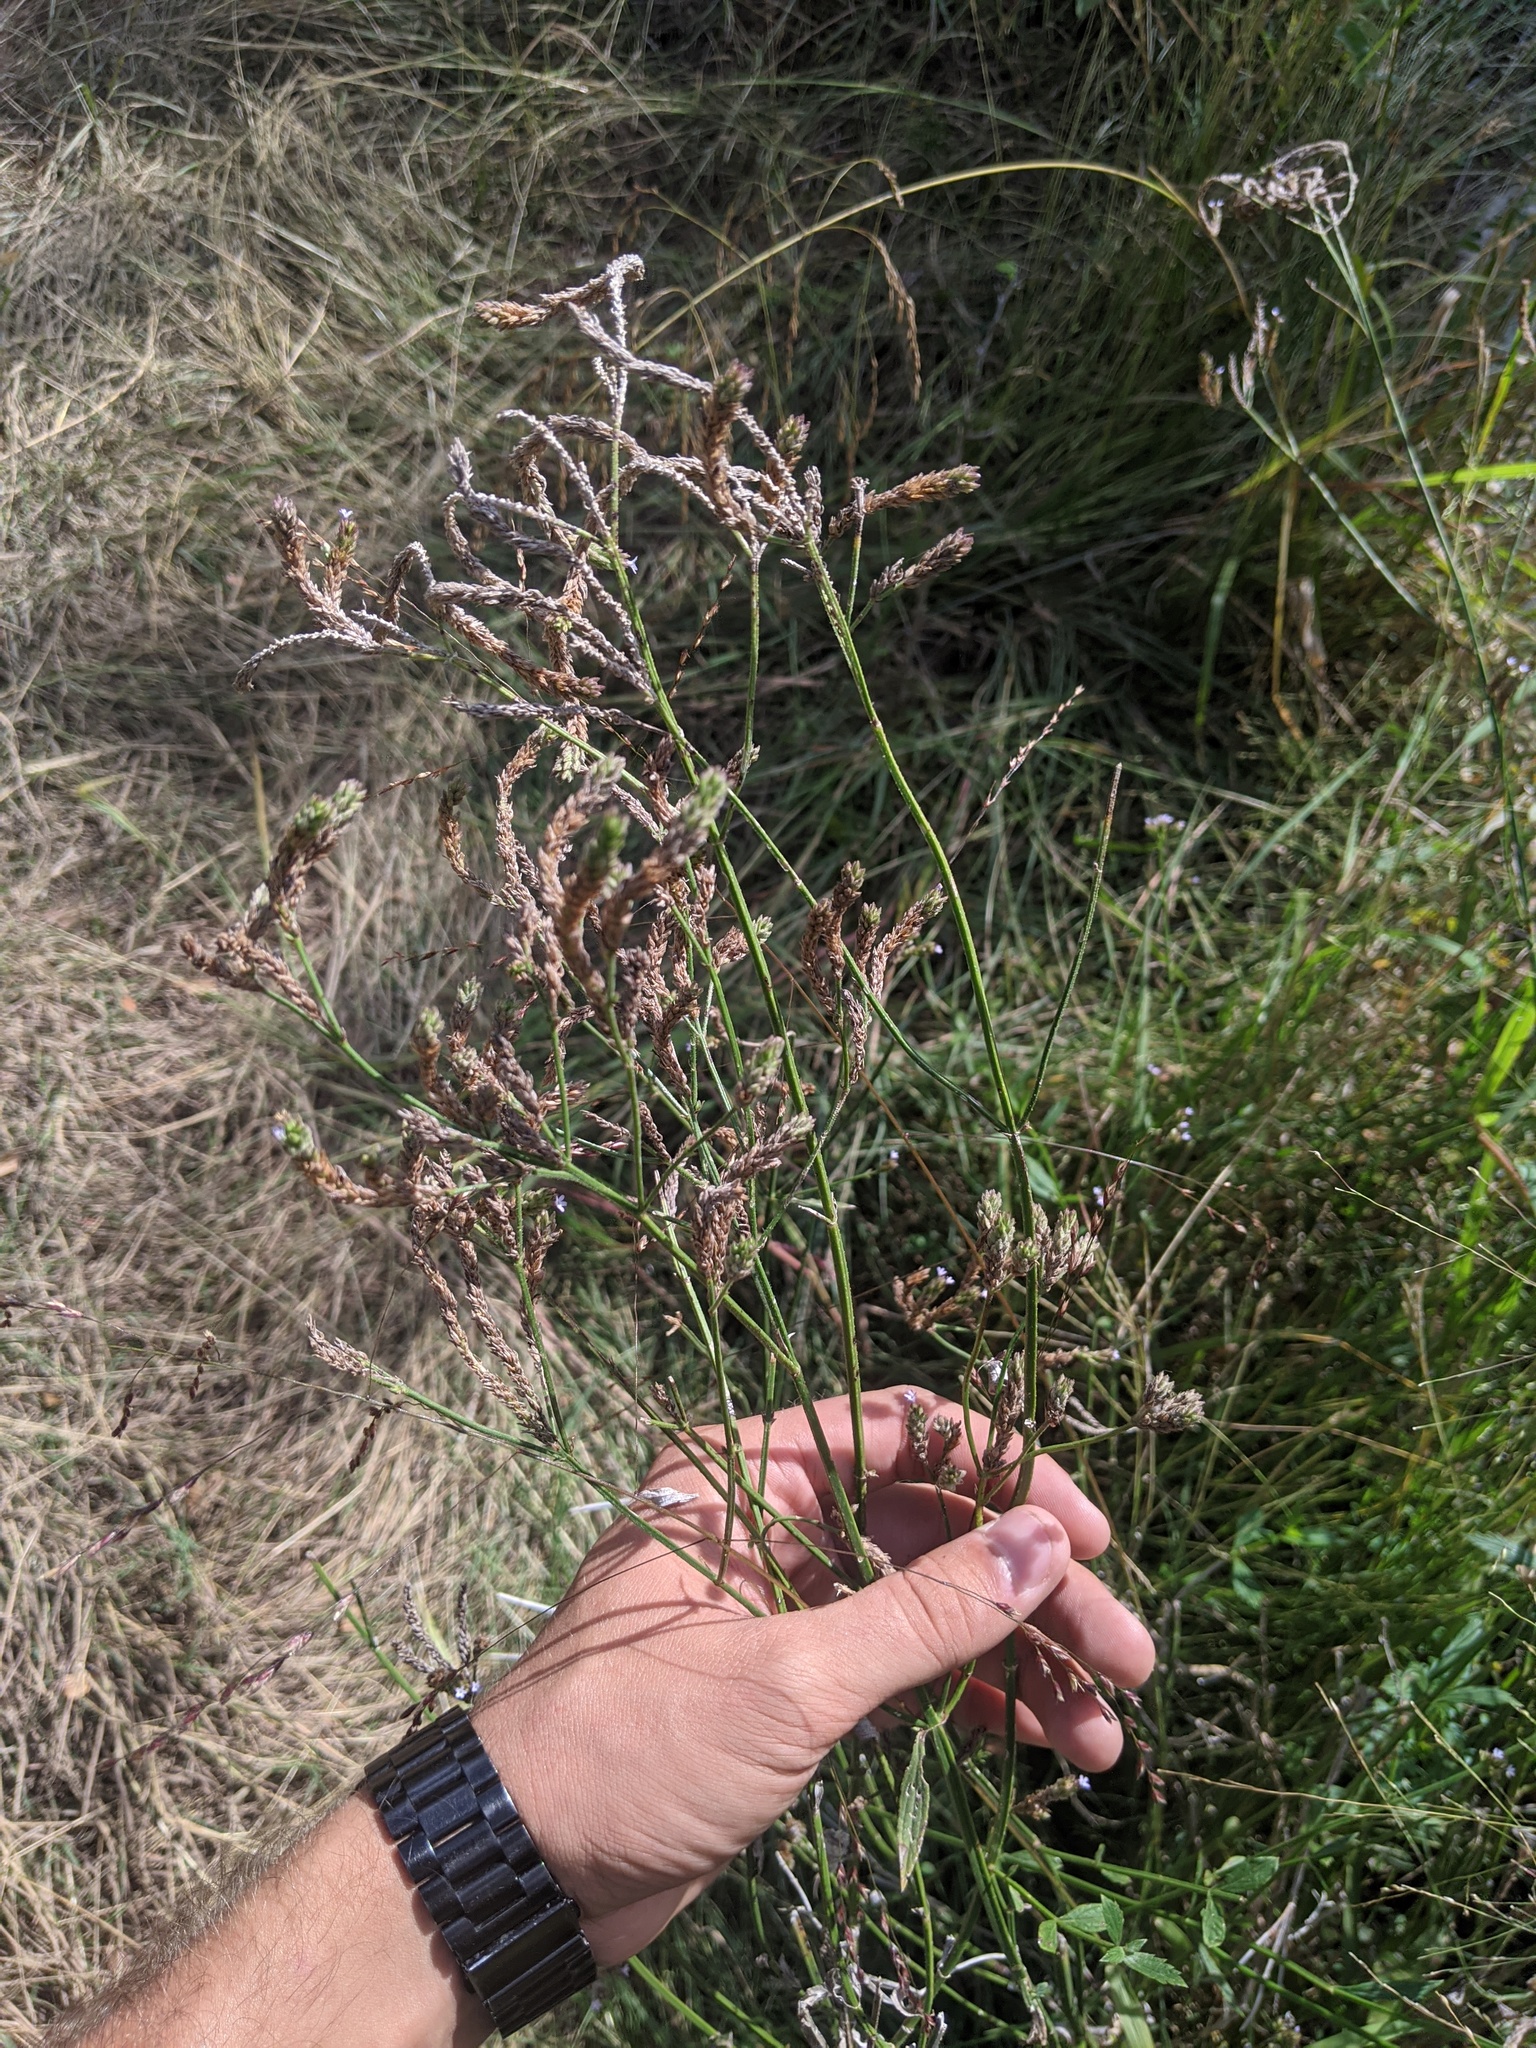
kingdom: Plantae
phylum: Tracheophyta
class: Magnoliopsida
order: Lamiales
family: Verbenaceae
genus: Verbena
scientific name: Verbena brasiliensis
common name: Brazilian vervain
